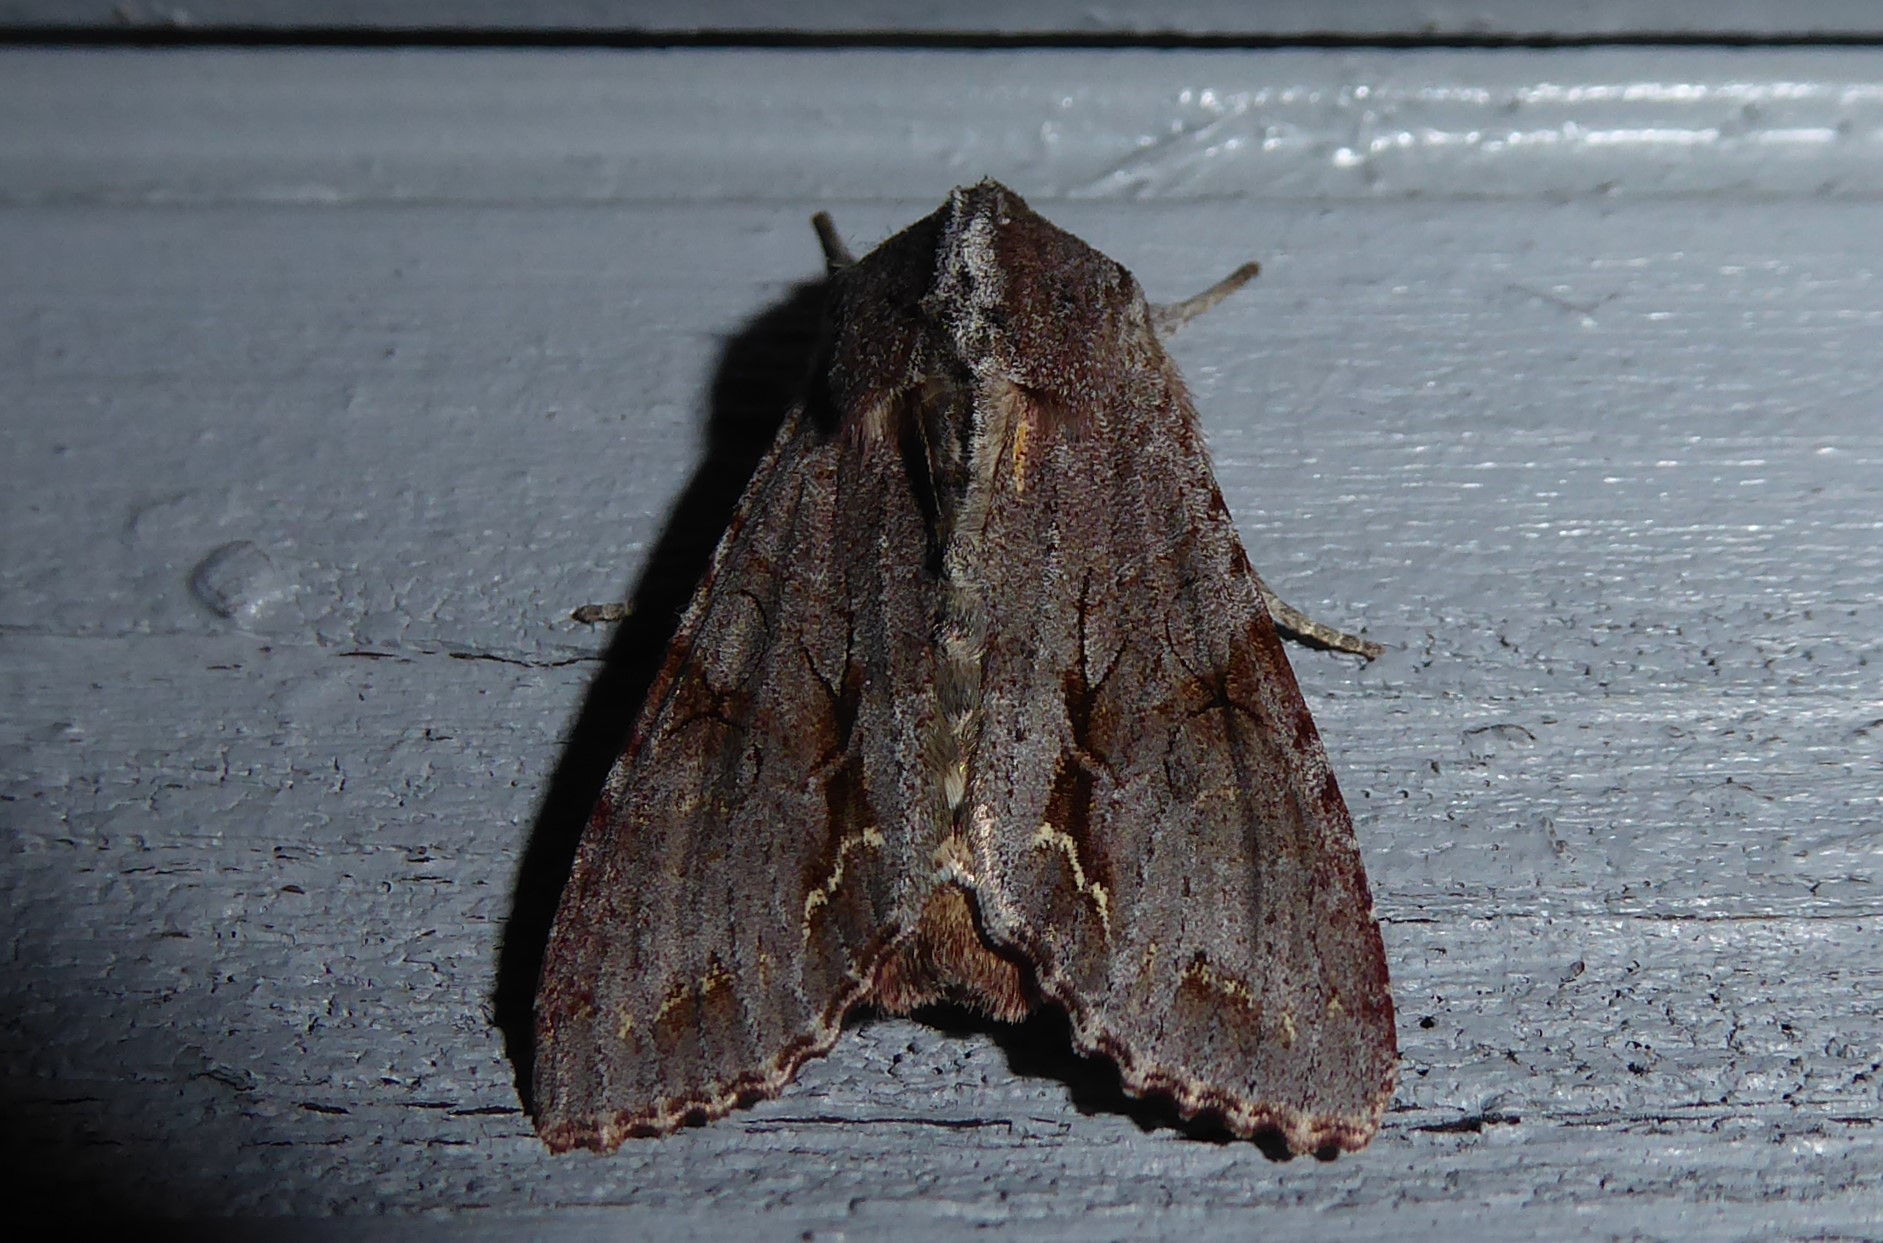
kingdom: Animalia
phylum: Arthropoda
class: Insecta
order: Lepidoptera
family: Noctuidae
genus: Ichneutica
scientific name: Ichneutica
